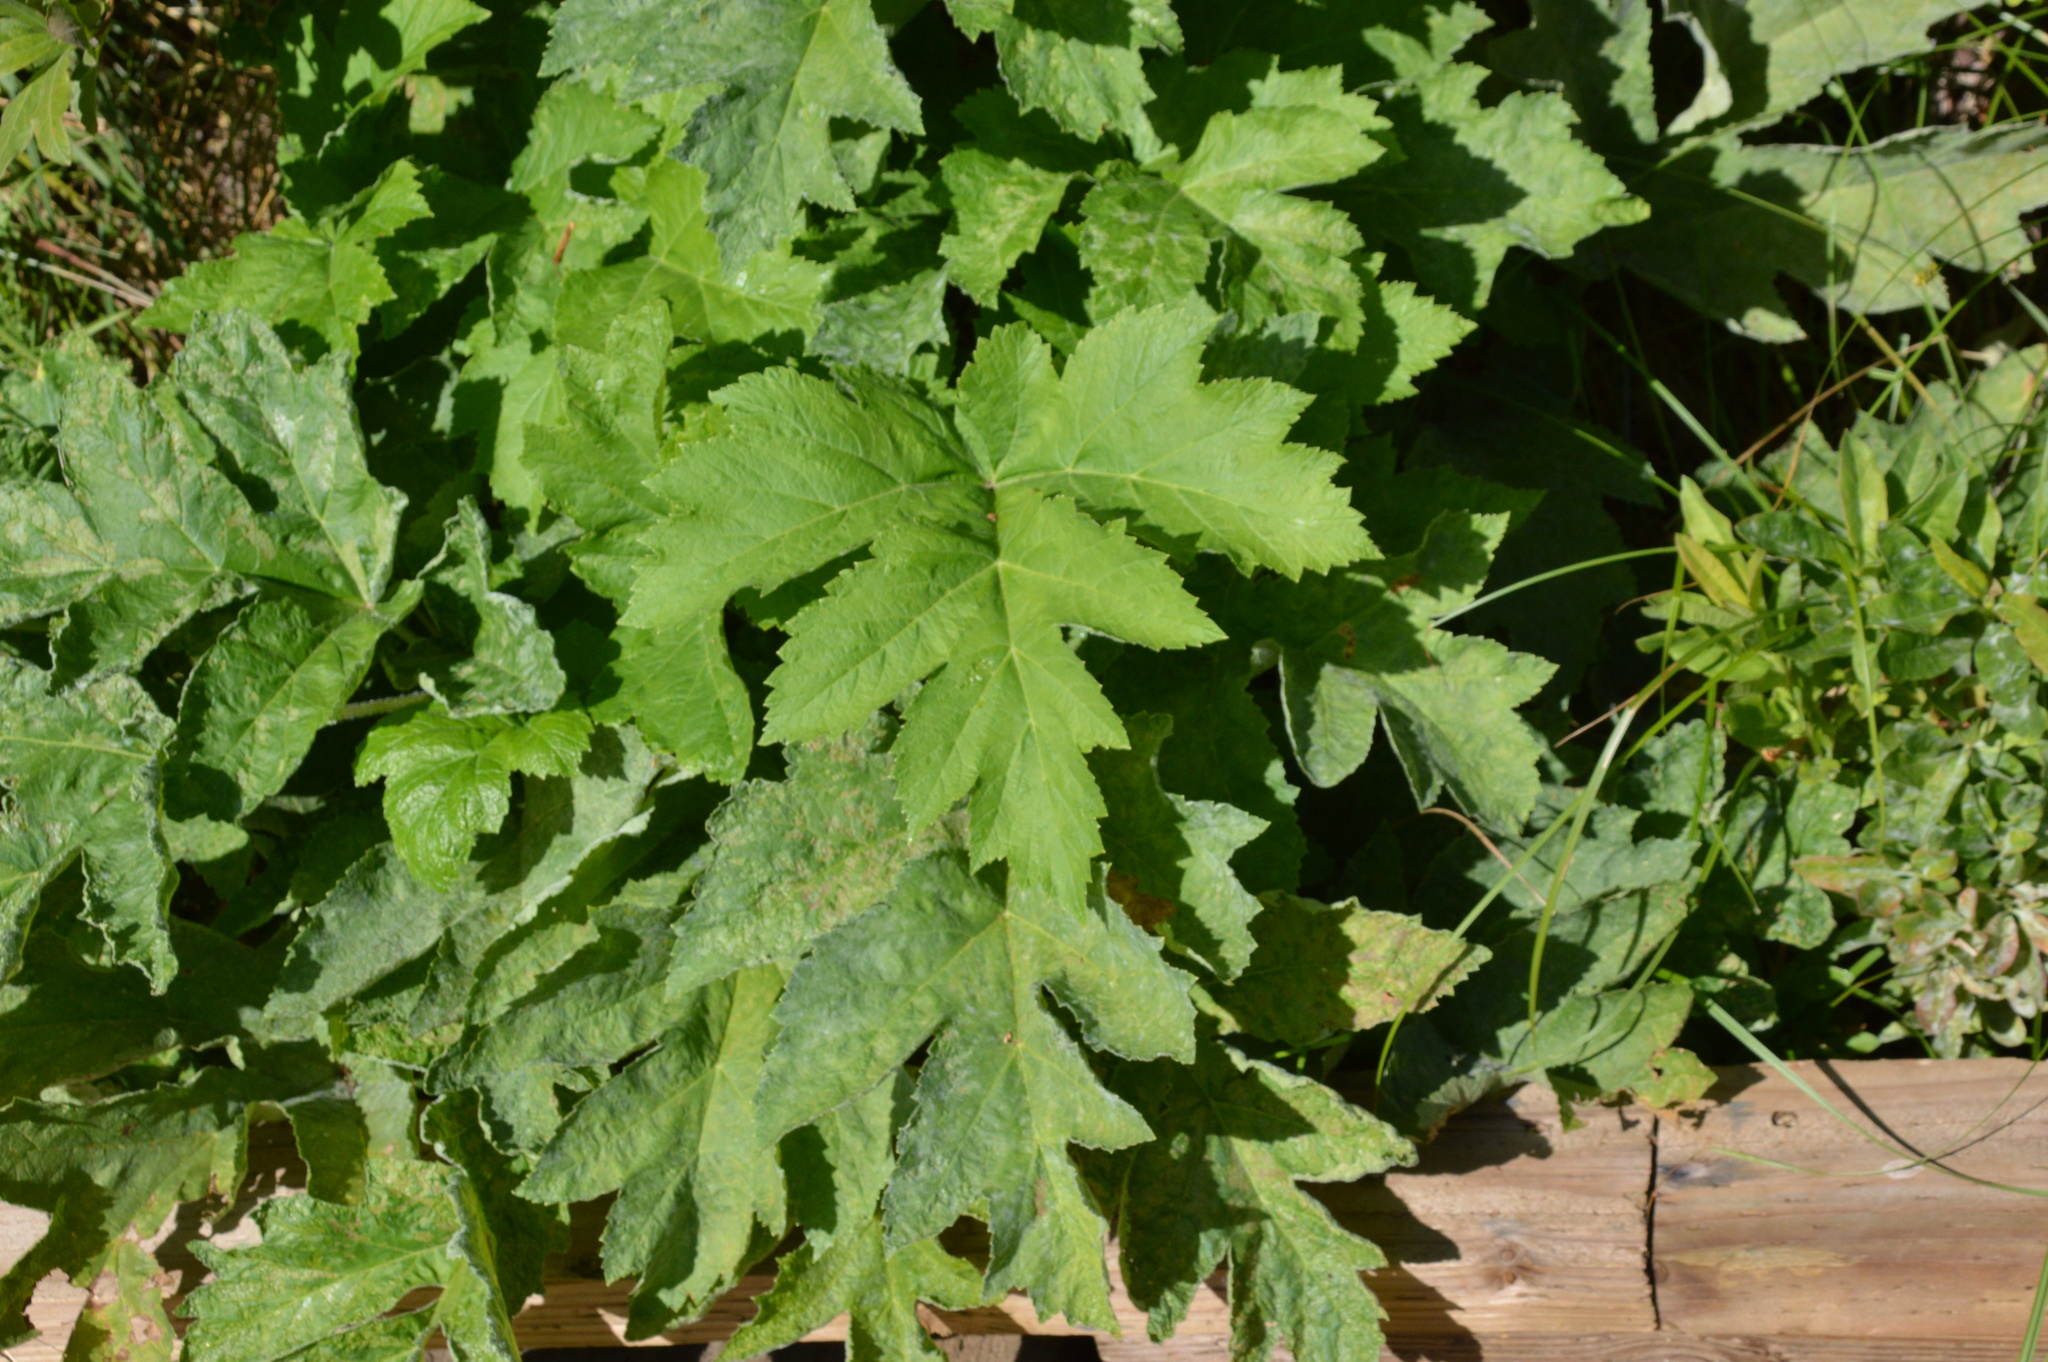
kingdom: Plantae
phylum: Tracheophyta
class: Magnoliopsida
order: Apiales
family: Apiaceae
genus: Heracleum
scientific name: Heracleum maximum
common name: American cow parsnip
